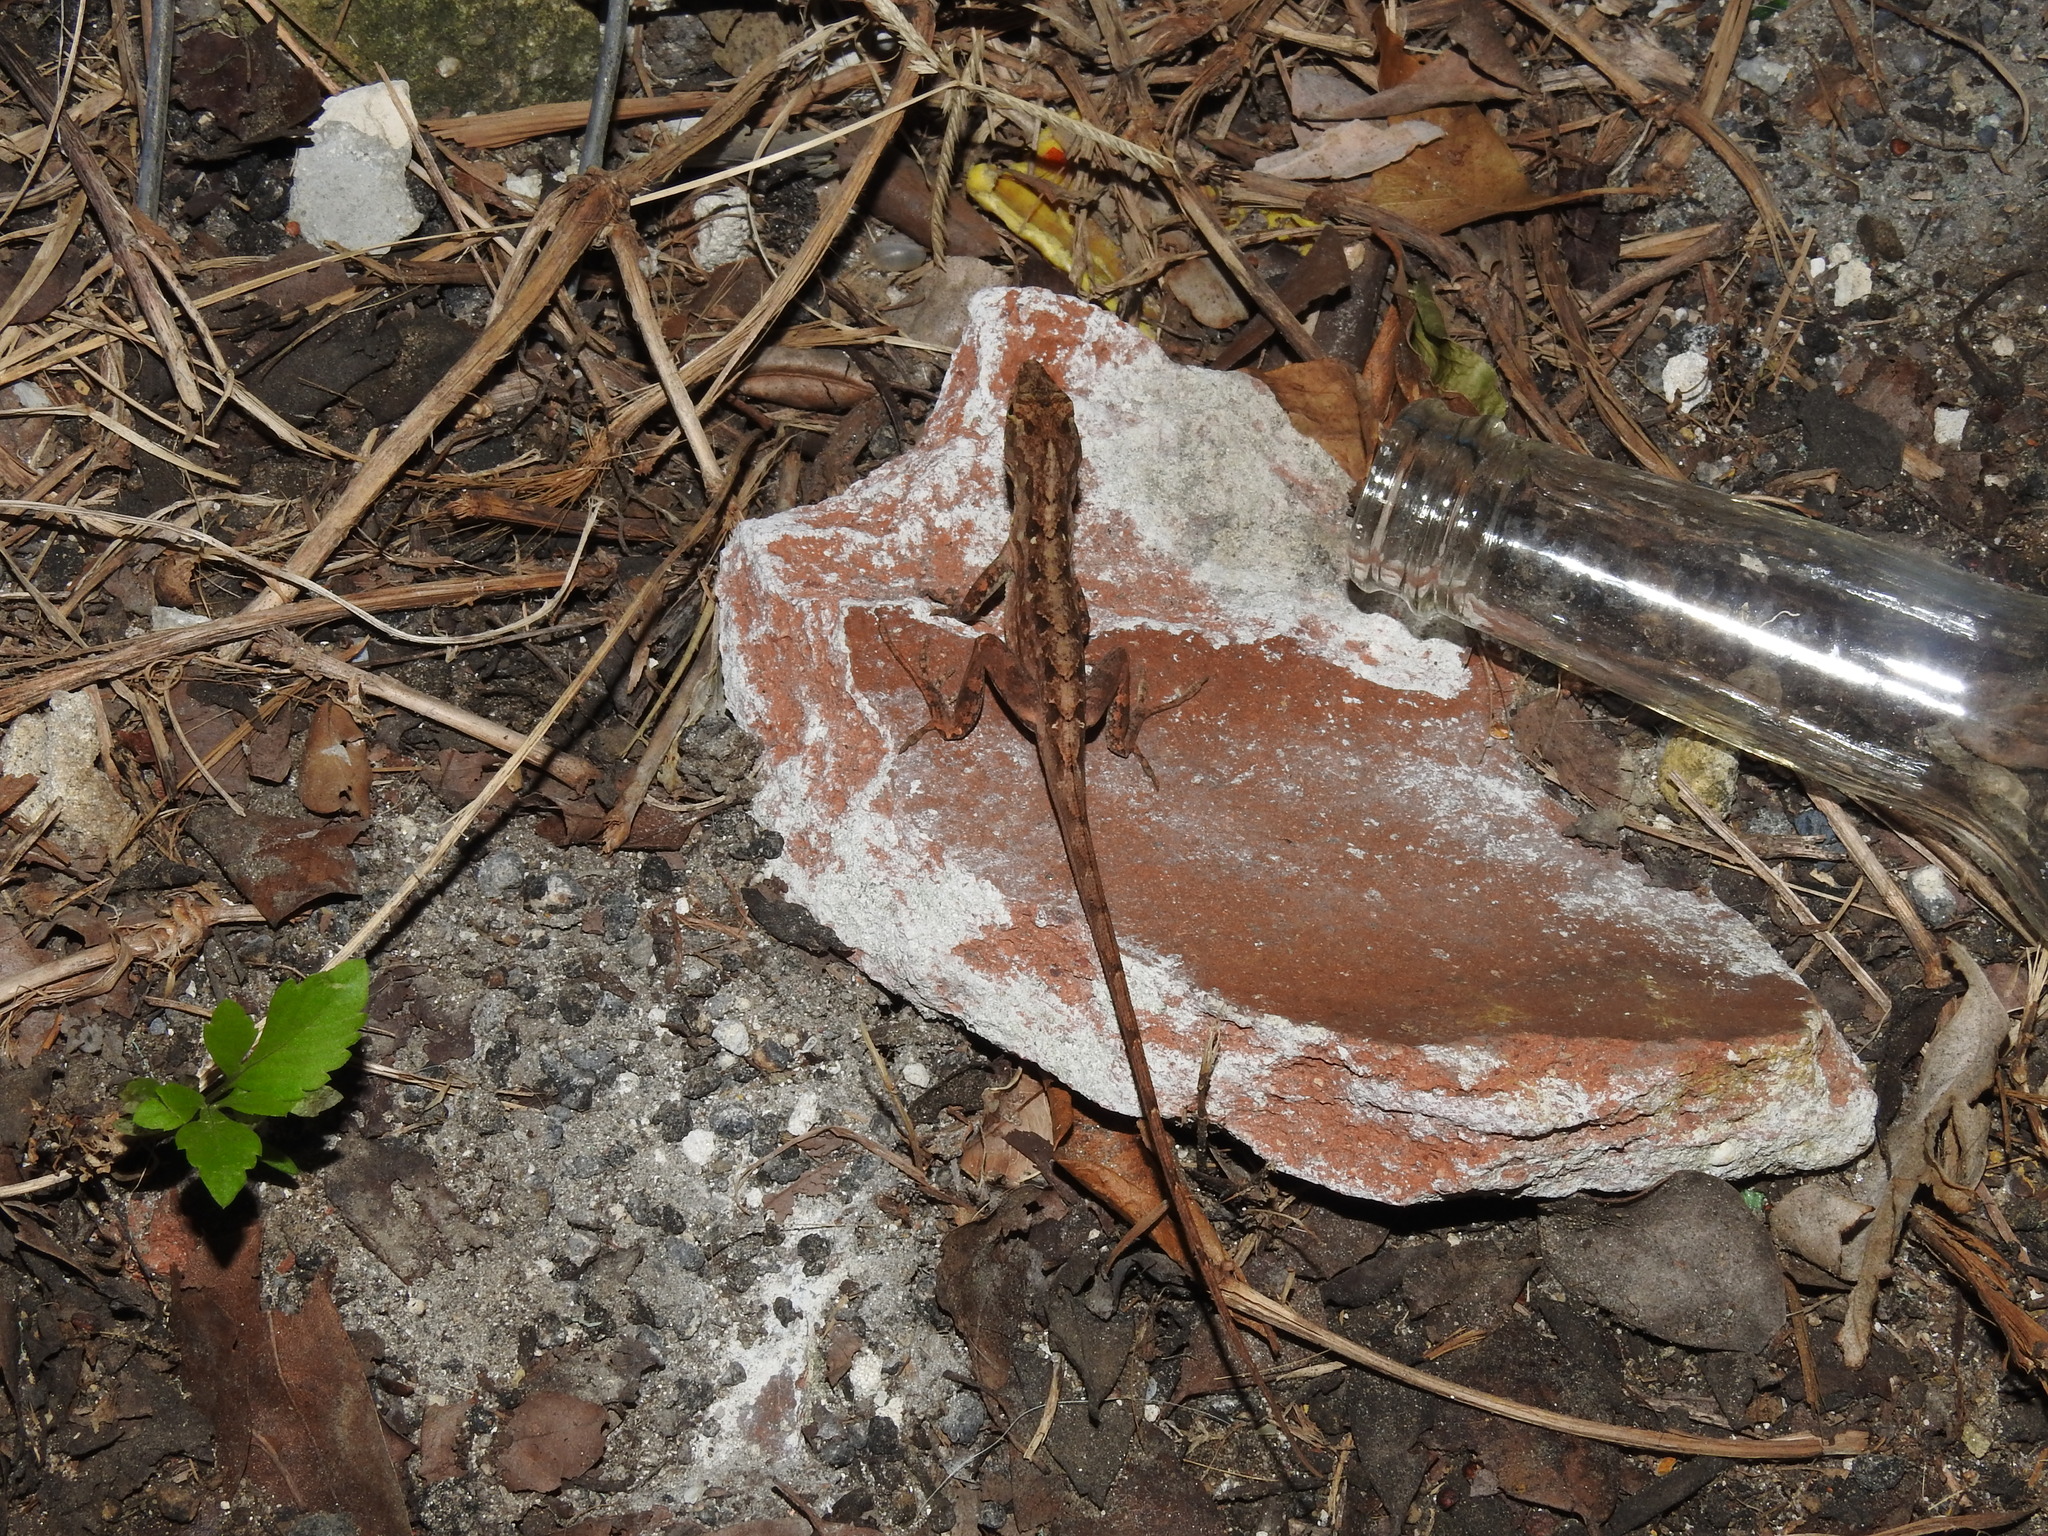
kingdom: Animalia
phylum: Chordata
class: Squamata
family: Dactyloidae
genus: Anolis
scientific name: Anolis sagrei
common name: Brown anole
